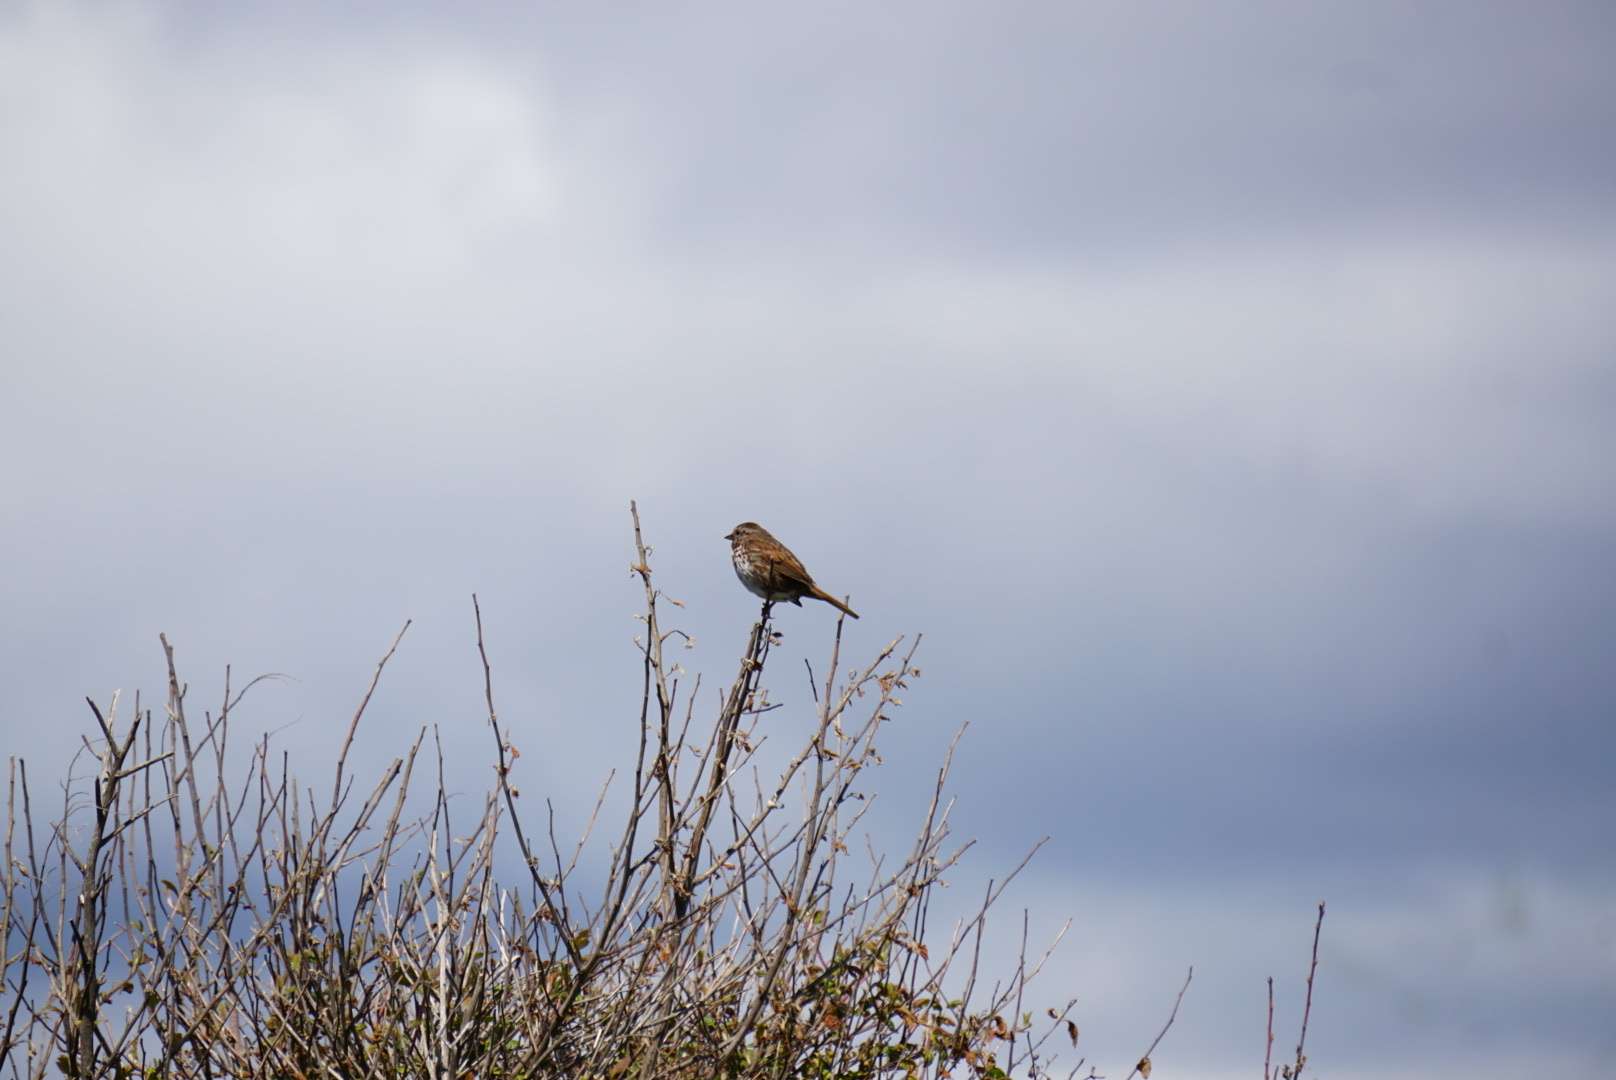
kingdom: Animalia
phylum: Chordata
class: Aves
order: Passeriformes
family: Passerellidae
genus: Melospiza
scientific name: Melospiza melodia
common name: Song sparrow
